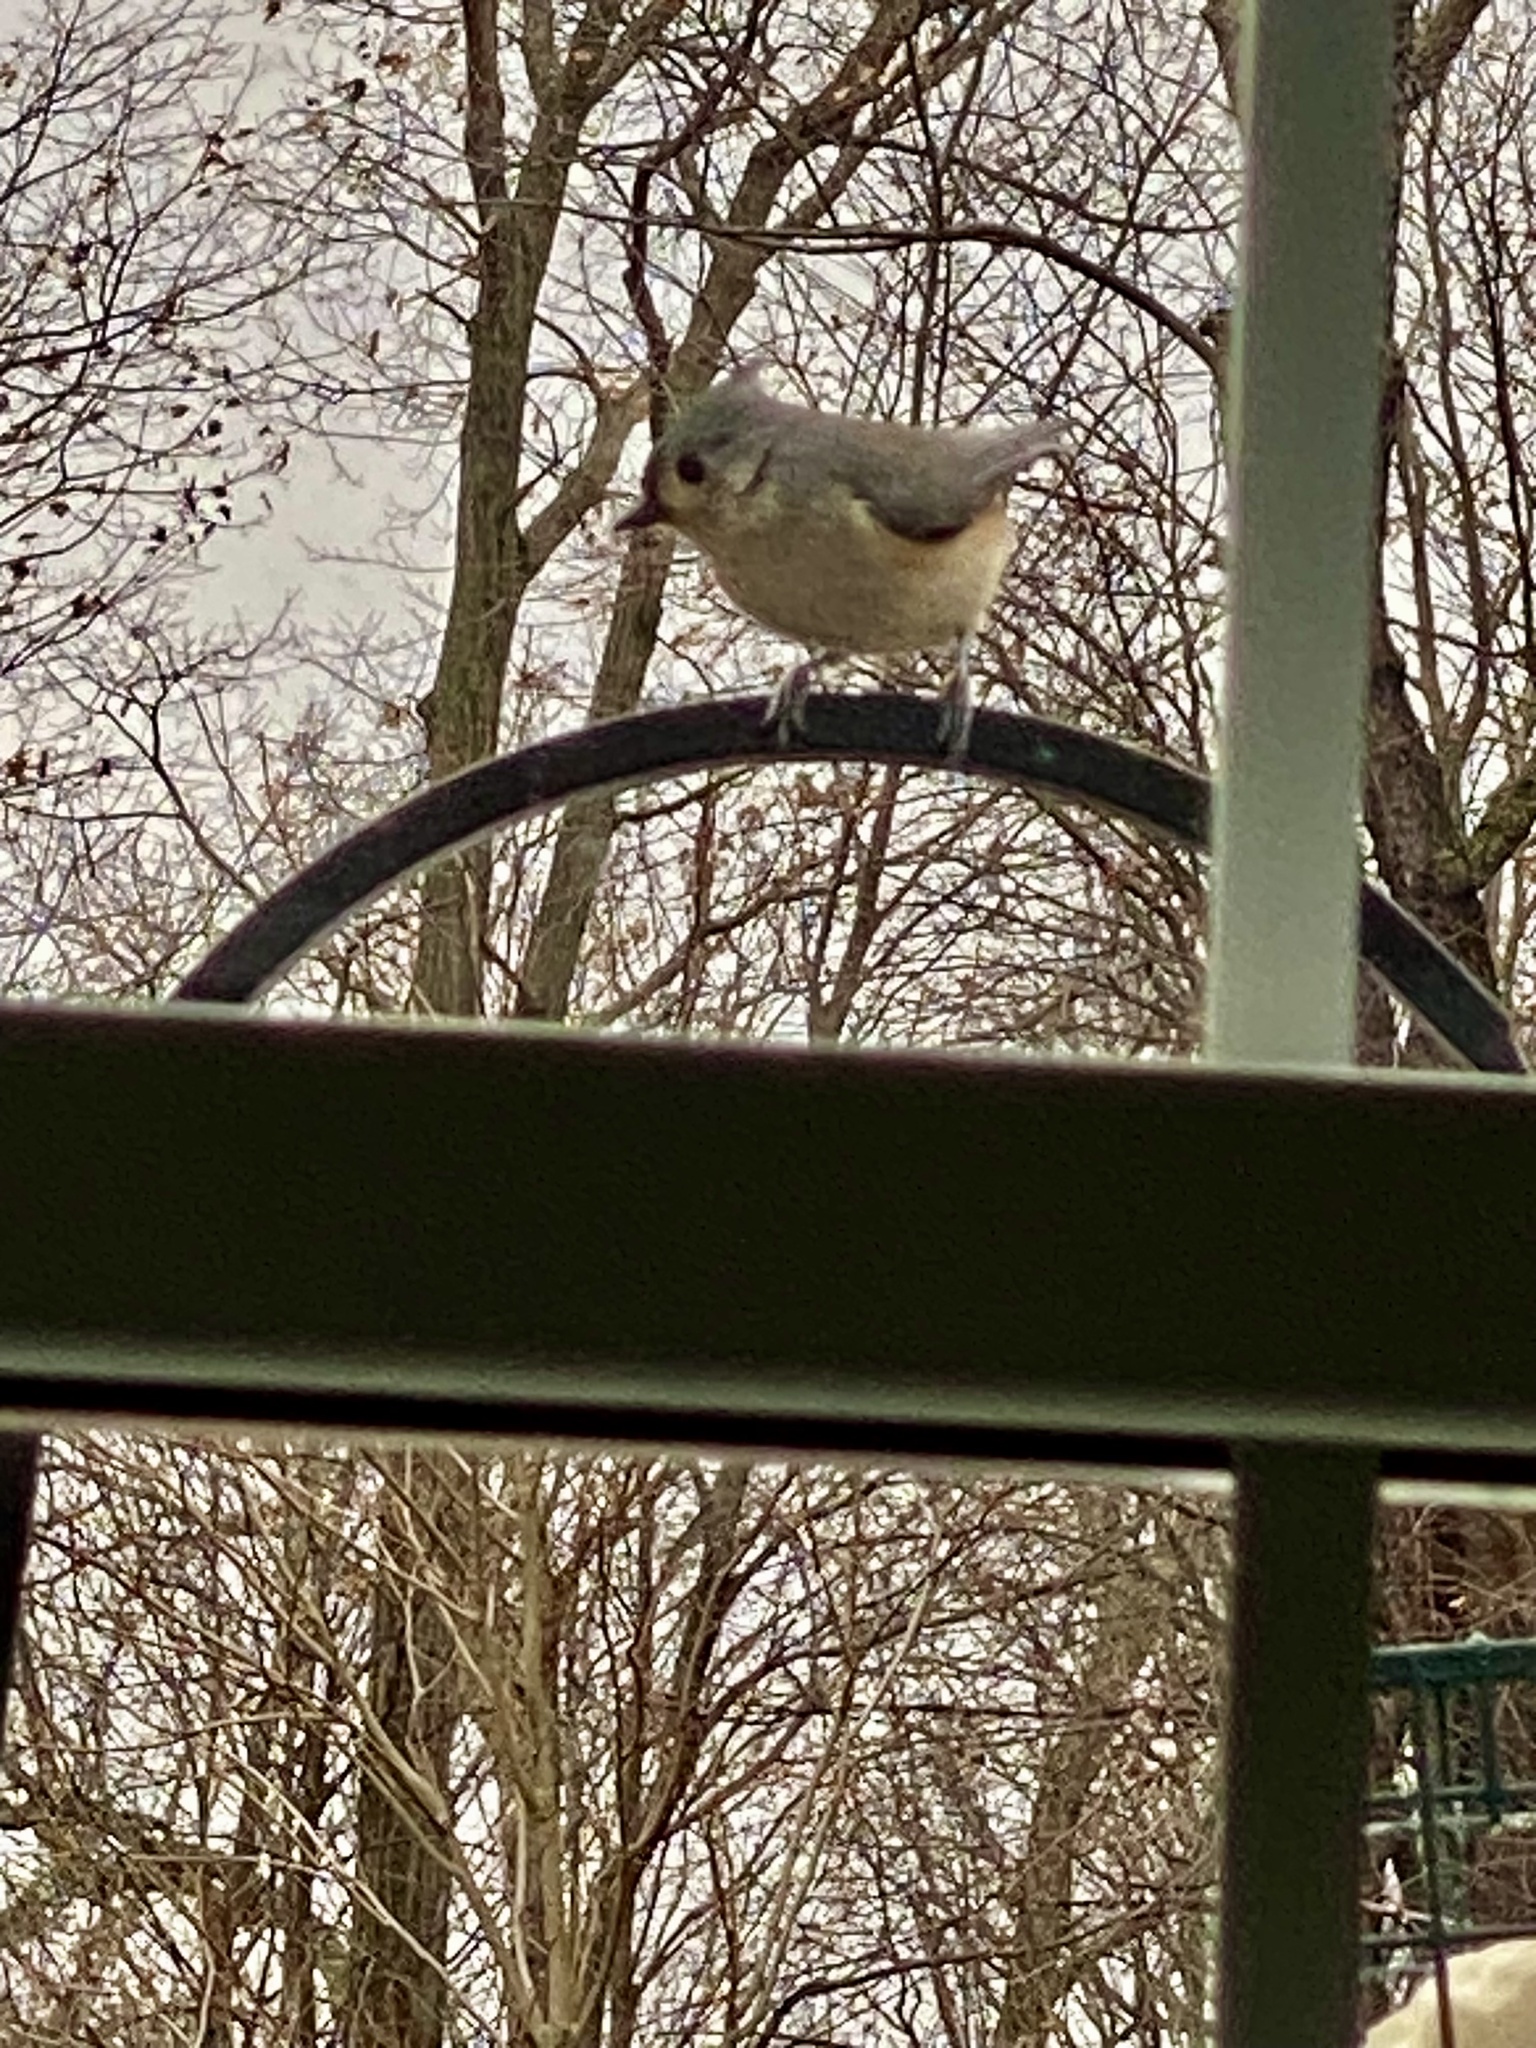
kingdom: Animalia
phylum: Chordata
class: Aves
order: Passeriformes
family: Paridae
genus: Baeolophus
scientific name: Baeolophus bicolor
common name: Tufted titmouse
